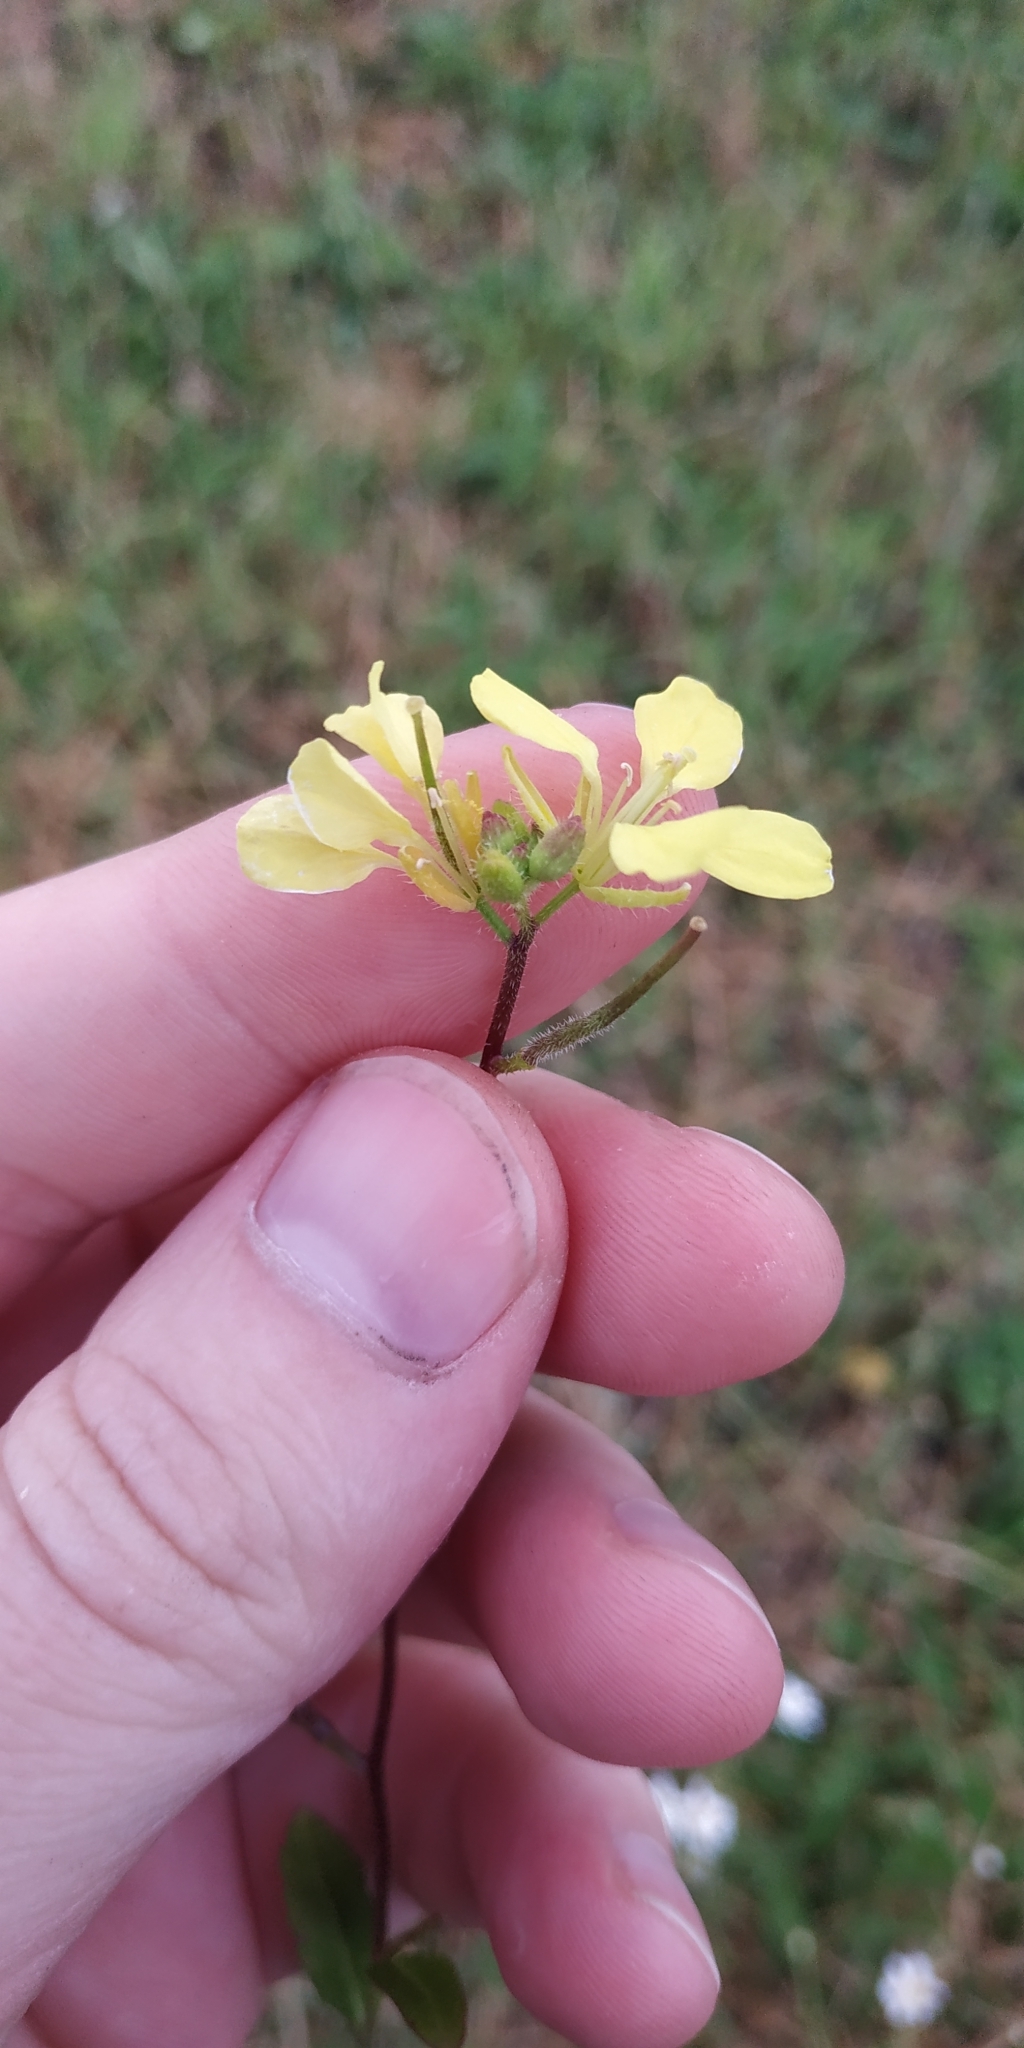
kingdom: Plantae
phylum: Tracheophyta
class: Magnoliopsida
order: Brassicales
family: Brassicaceae
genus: Sinapis
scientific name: Sinapis arvensis
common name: Charlock
